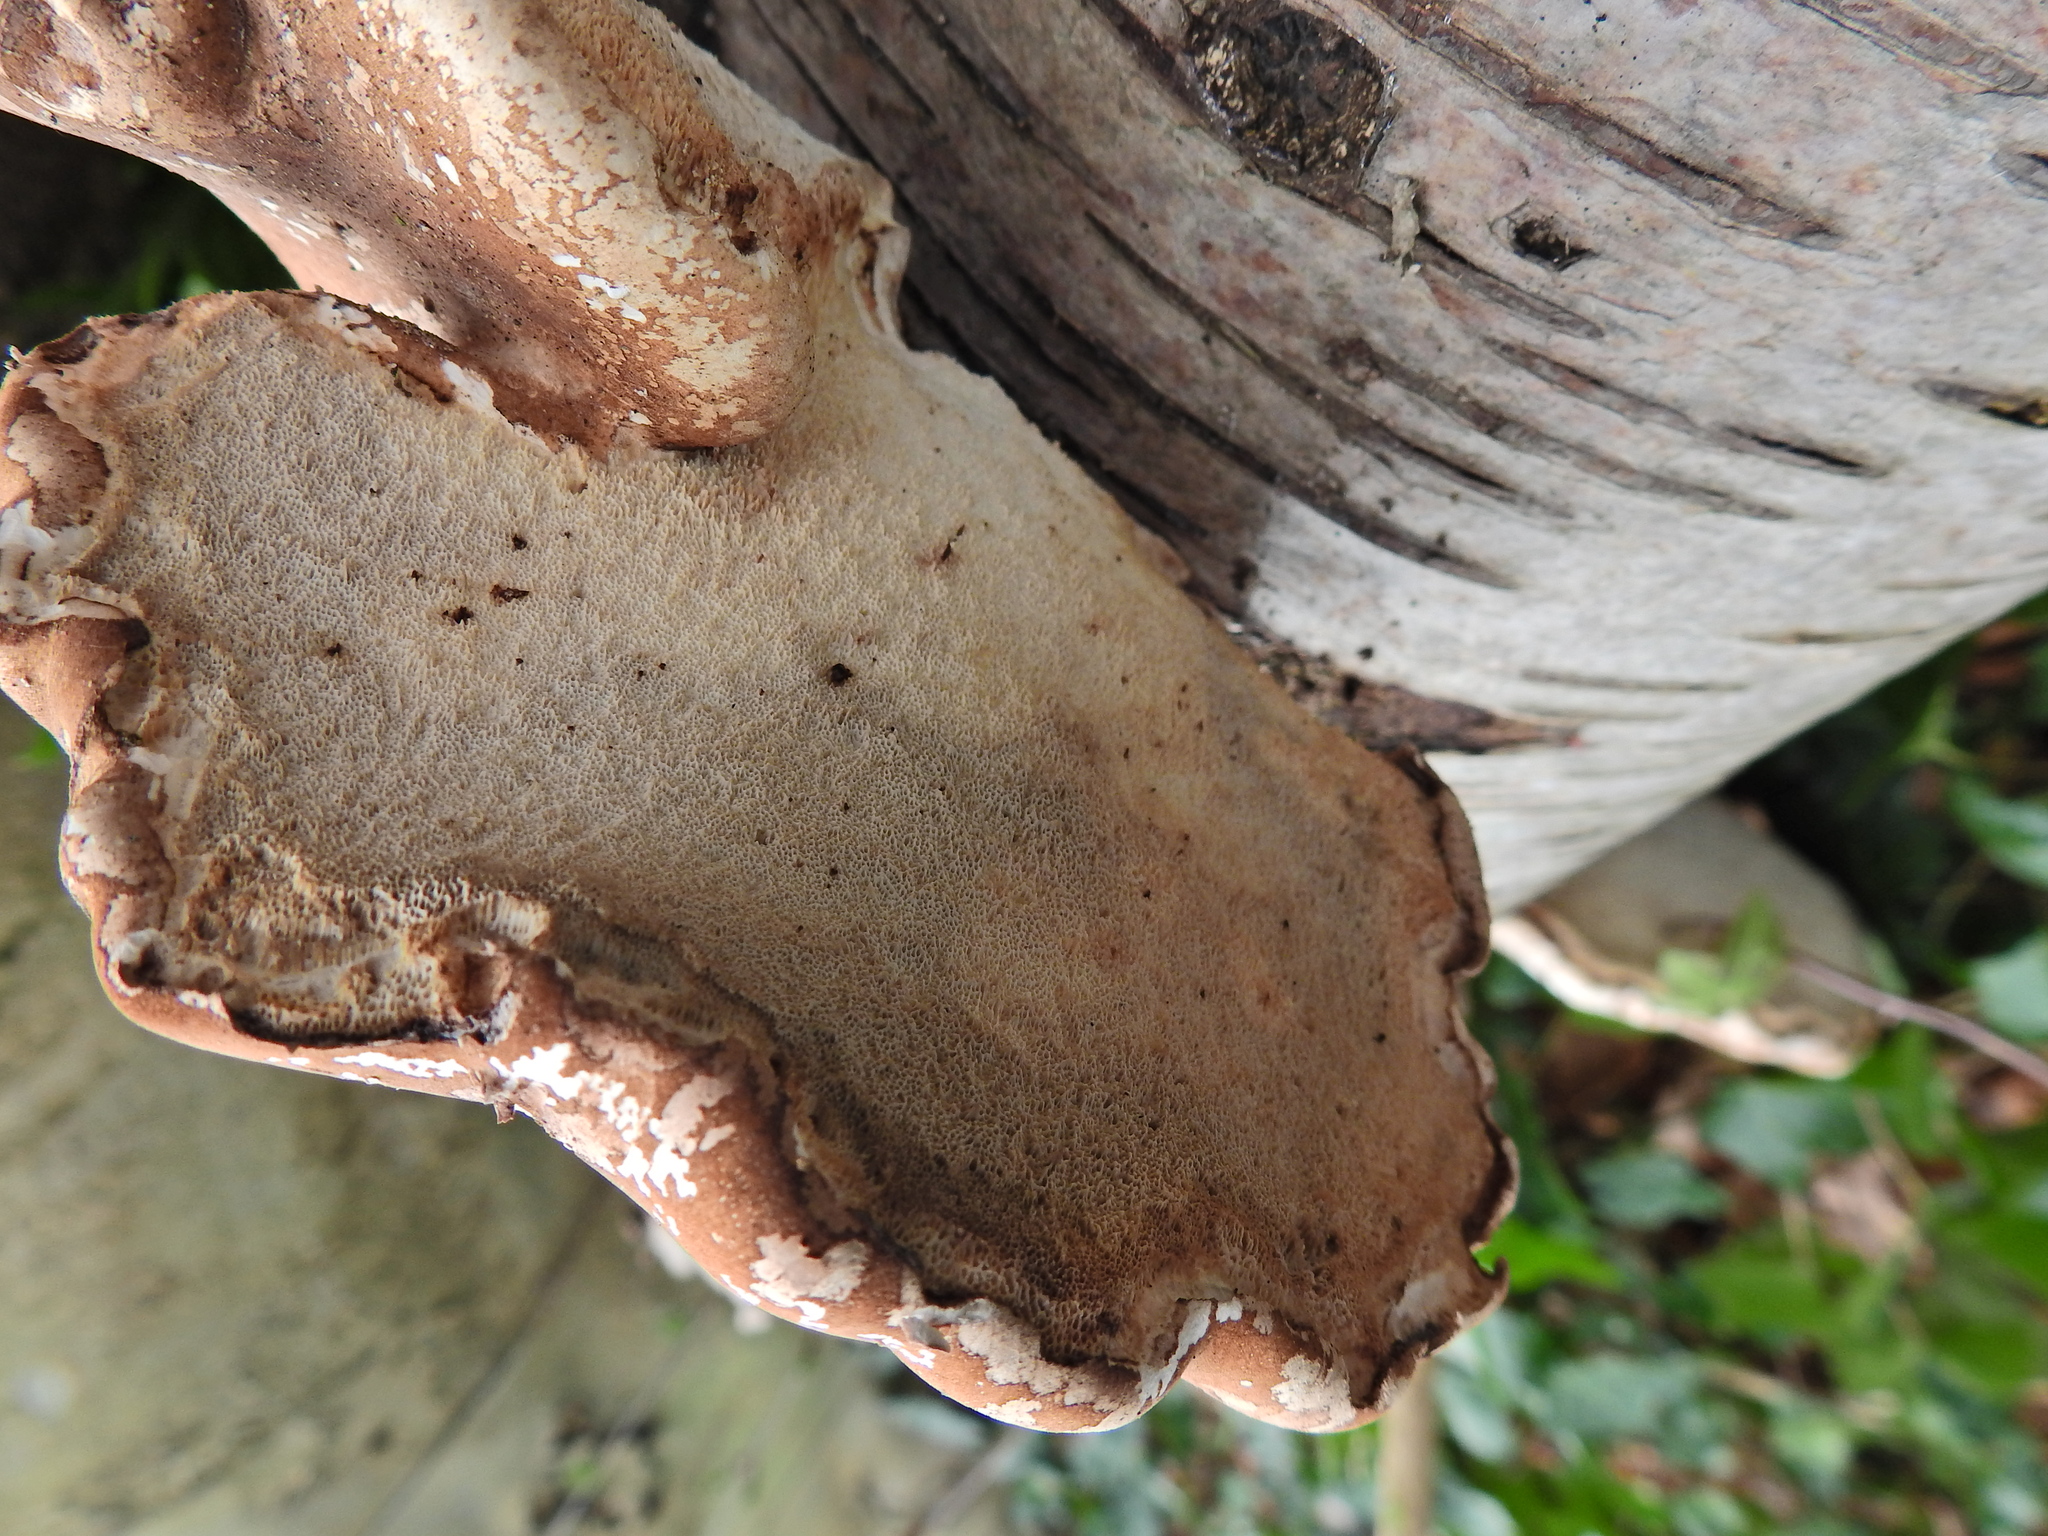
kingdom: Fungi
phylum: Basidiomycota
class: Agaricomycetes
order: Polyporales
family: Fomitopsidaceae
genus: Fomitopsis
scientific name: Fomitopsis betulina
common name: Birch polypore
